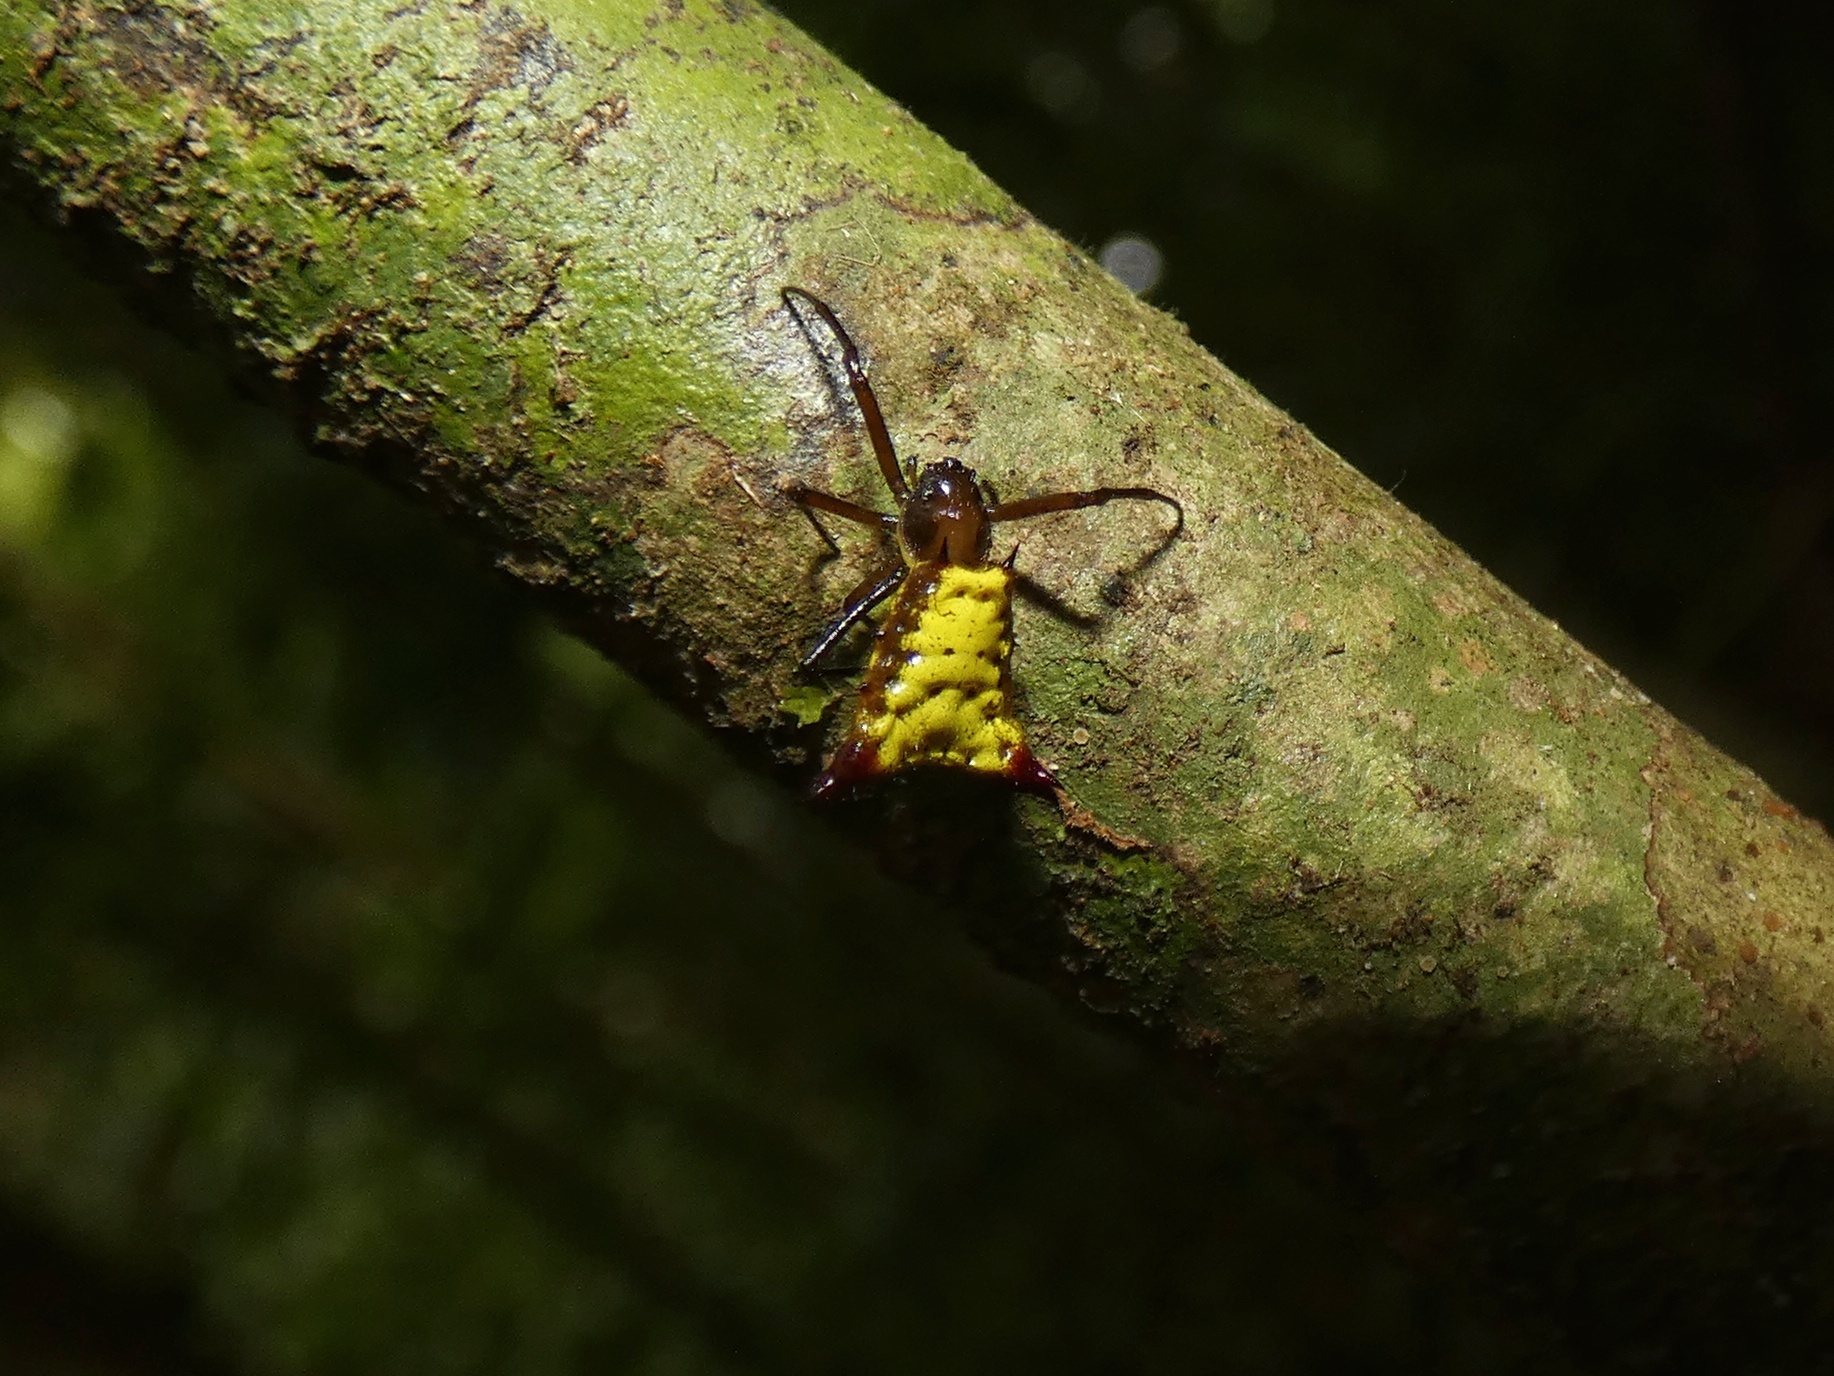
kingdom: Animalia
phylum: Arthropoda
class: Arachnida
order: Araneae
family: Araneidae
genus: Micrathena
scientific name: Micrathena duodecimspinosa
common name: Orb weavers
